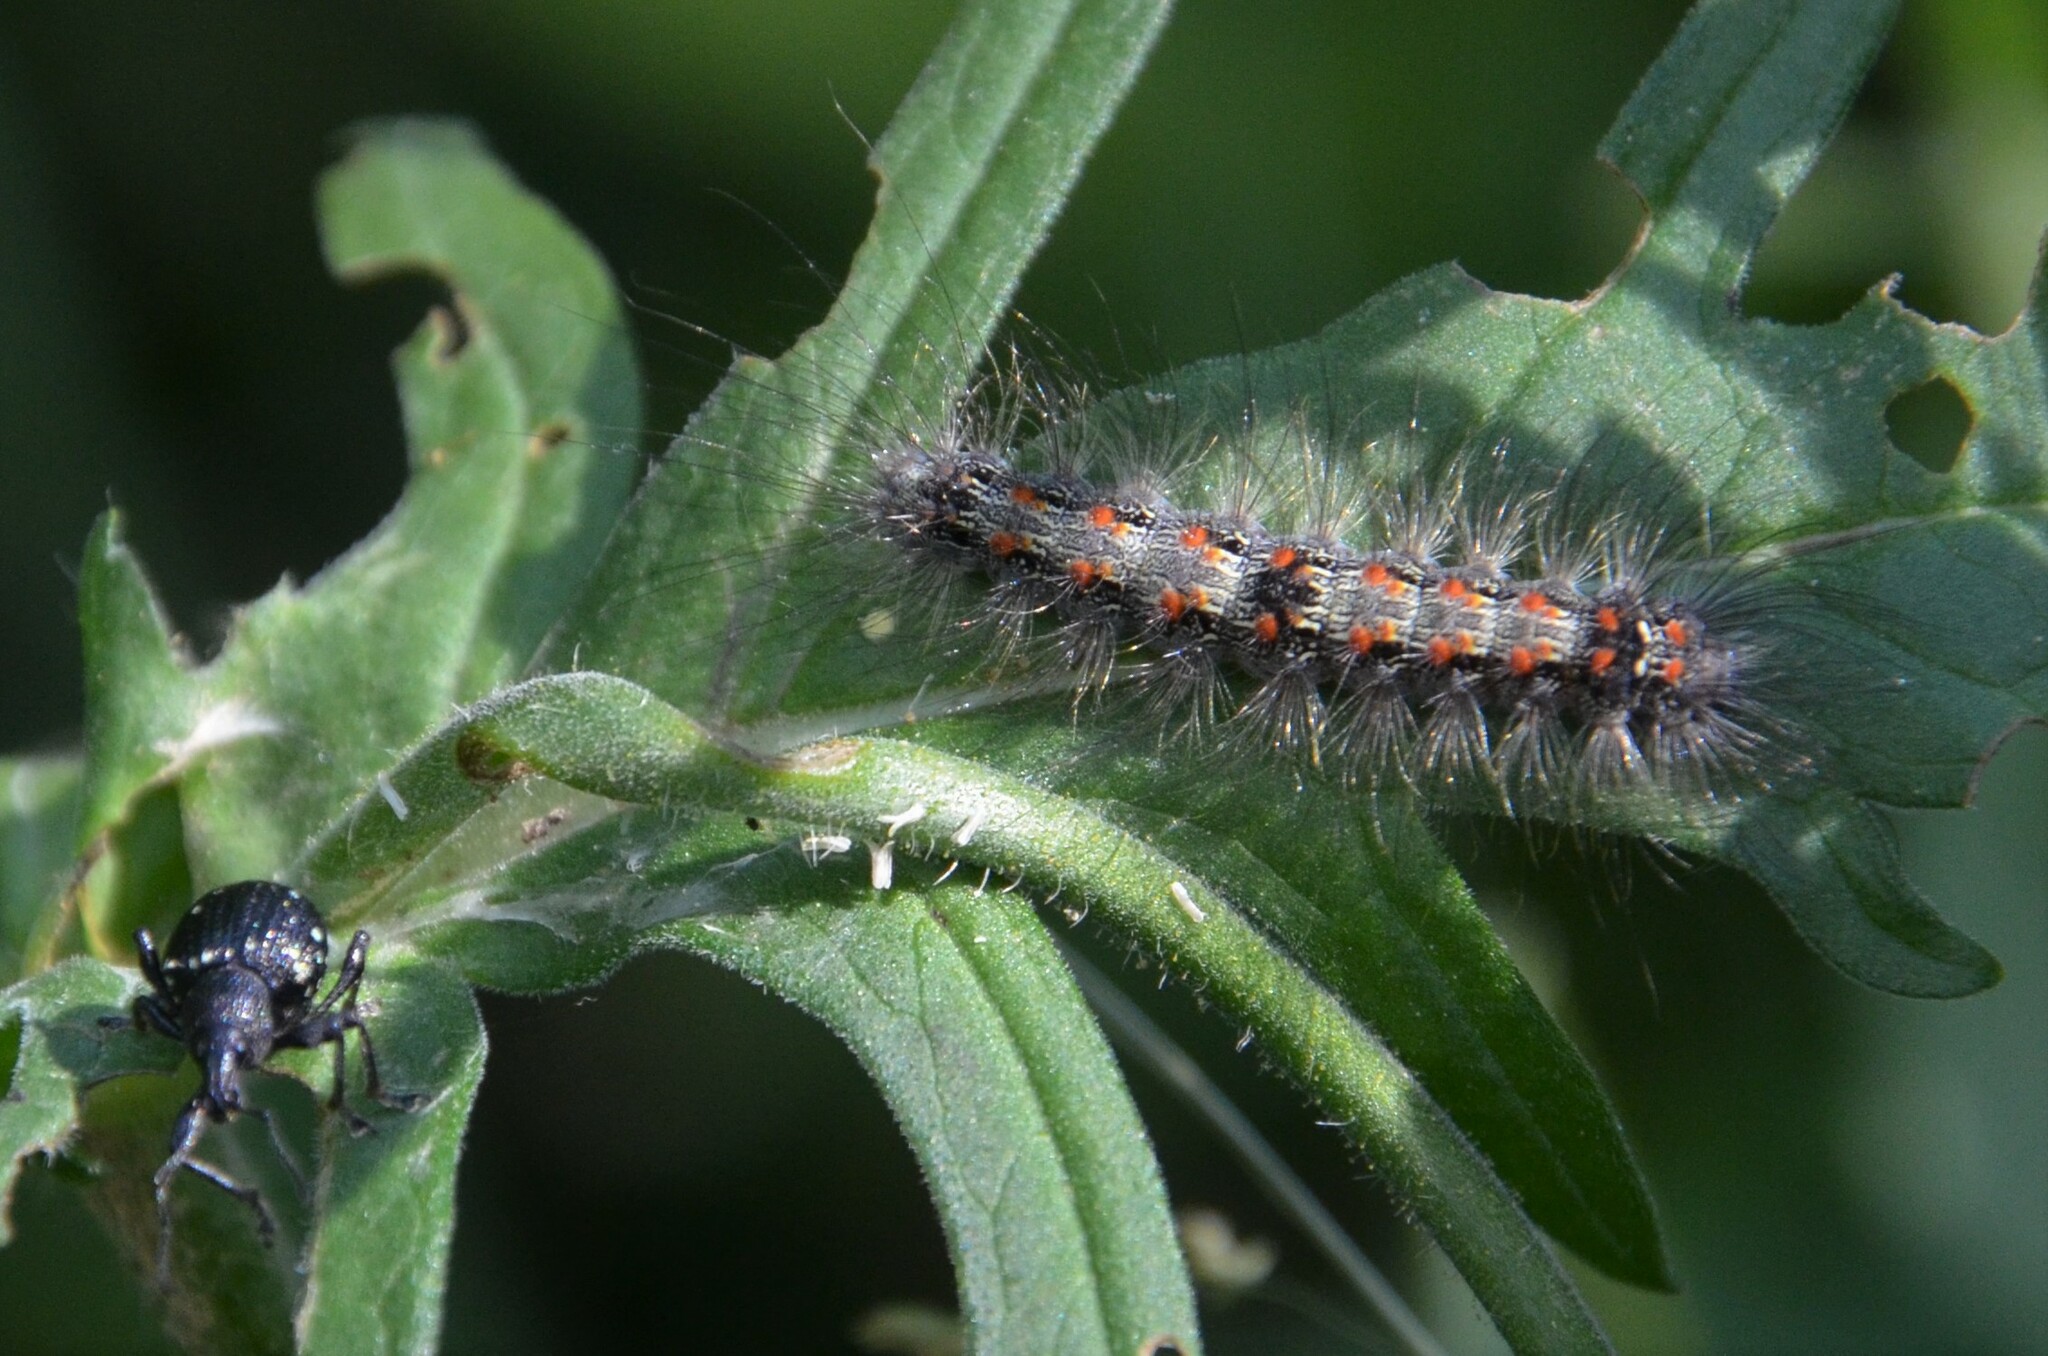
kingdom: Animalia
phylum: Arthropoda
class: Insecta
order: Lepidoptera
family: Erebidae
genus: Lithosia
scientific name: Lithosia quadra
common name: Four-spotted footman
